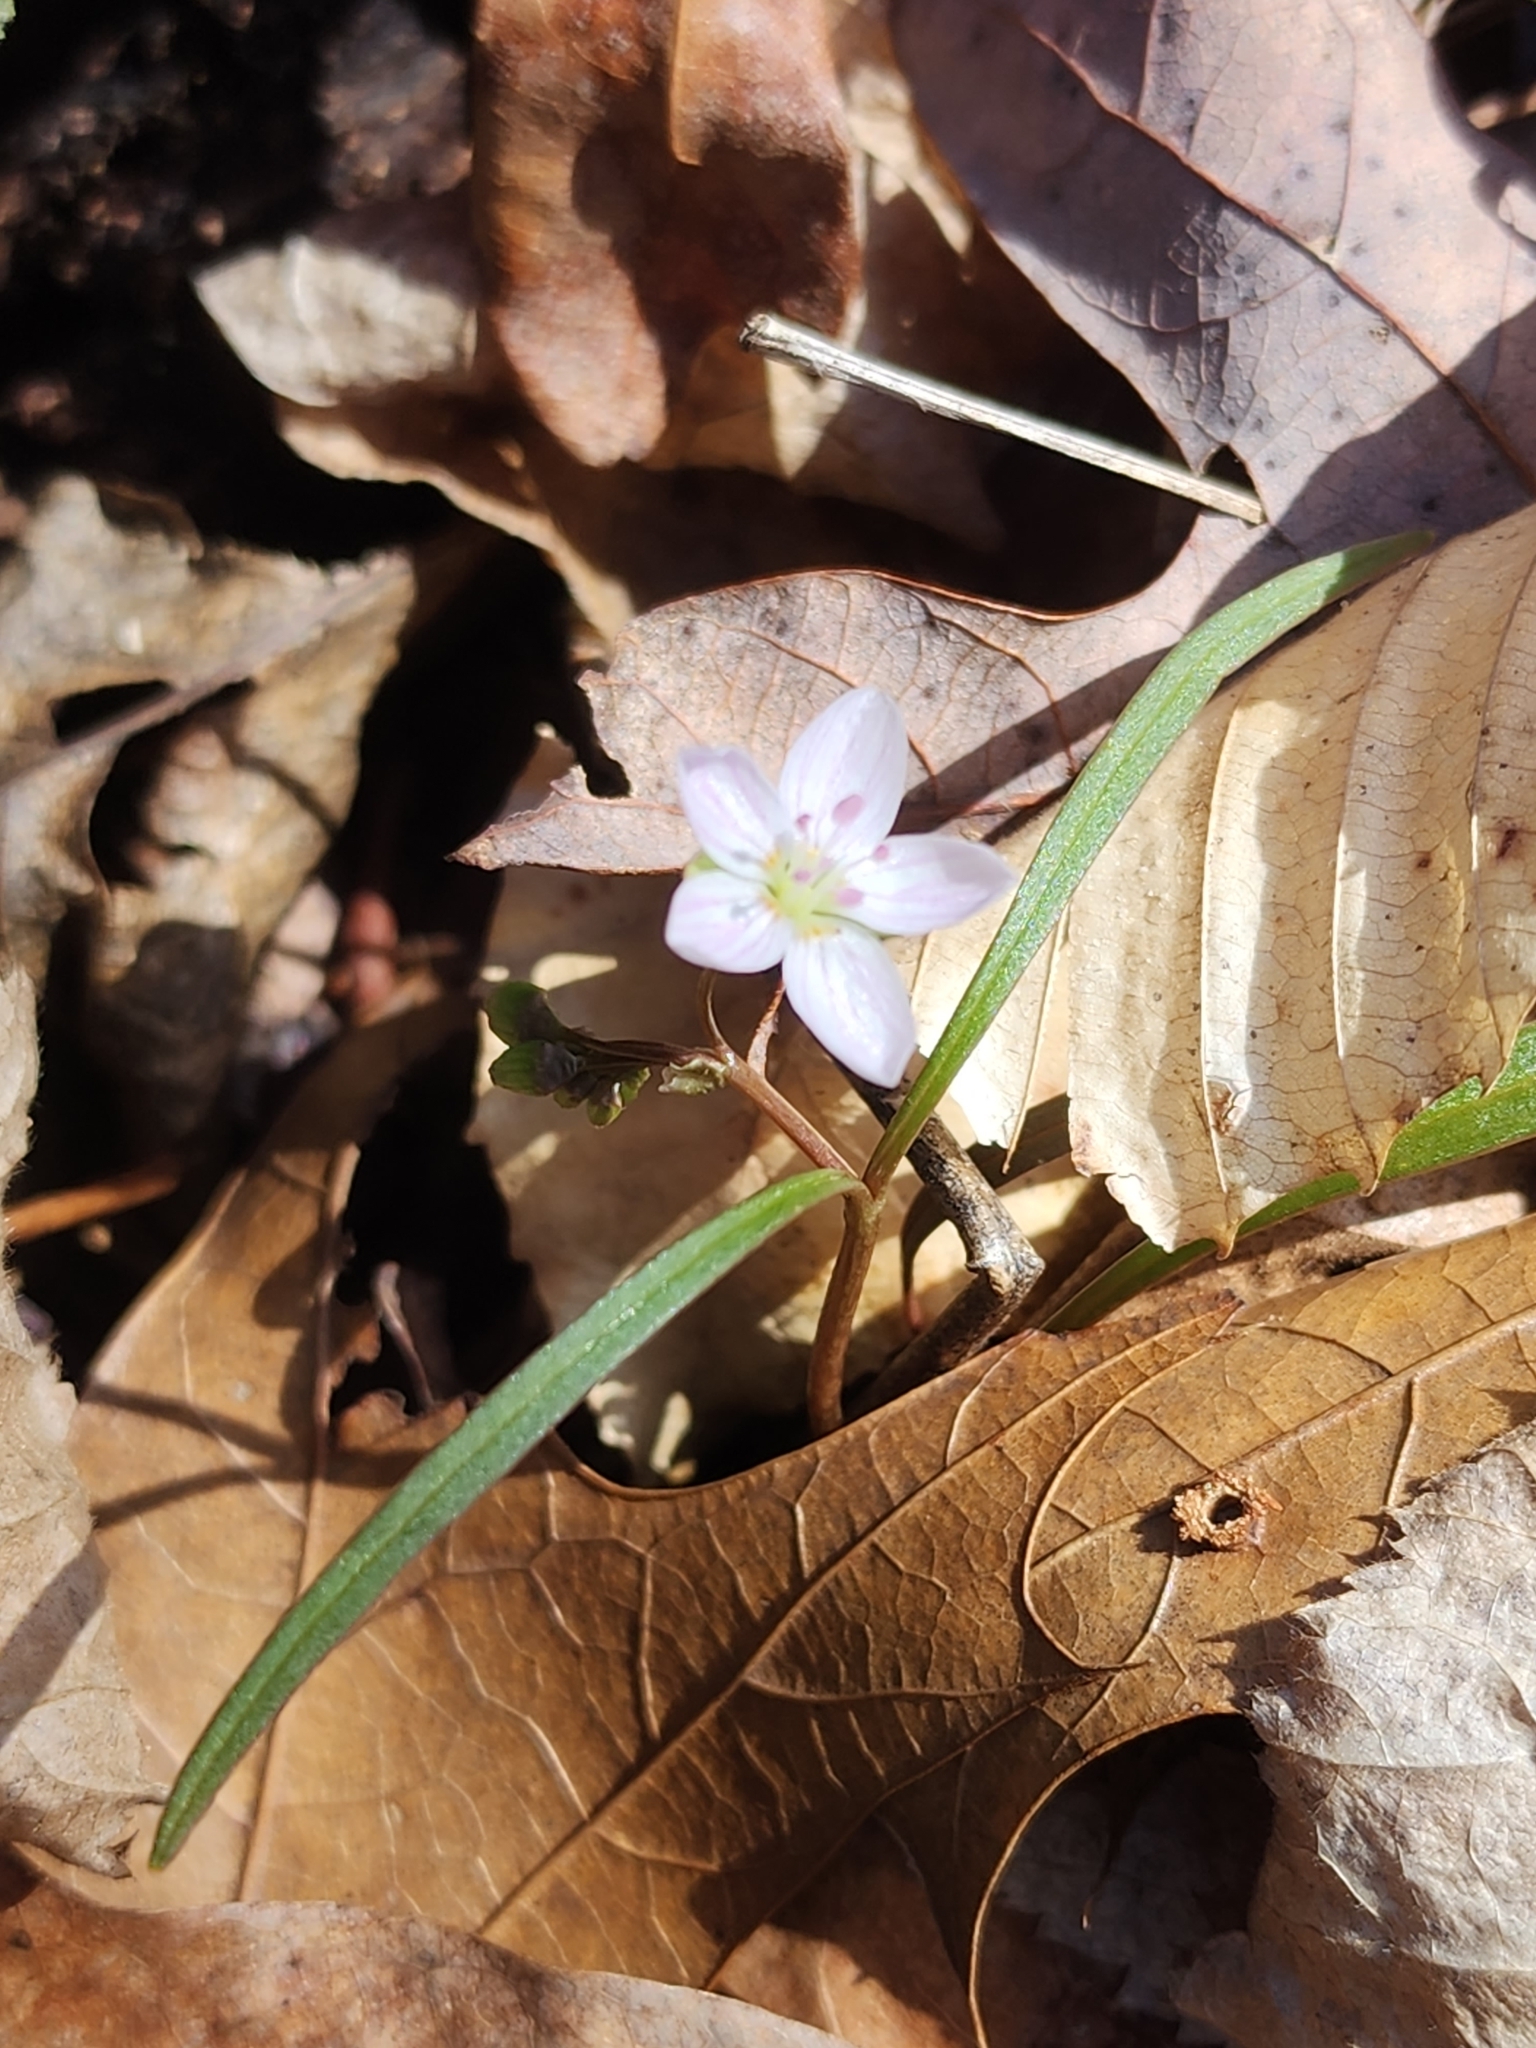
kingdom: Plantae
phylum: Tracheophyta
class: Magnoliopsida
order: Caryophyllales
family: Montiaceae
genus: Claytonia
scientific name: Claytonia virginica
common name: Virginia springbeauty
